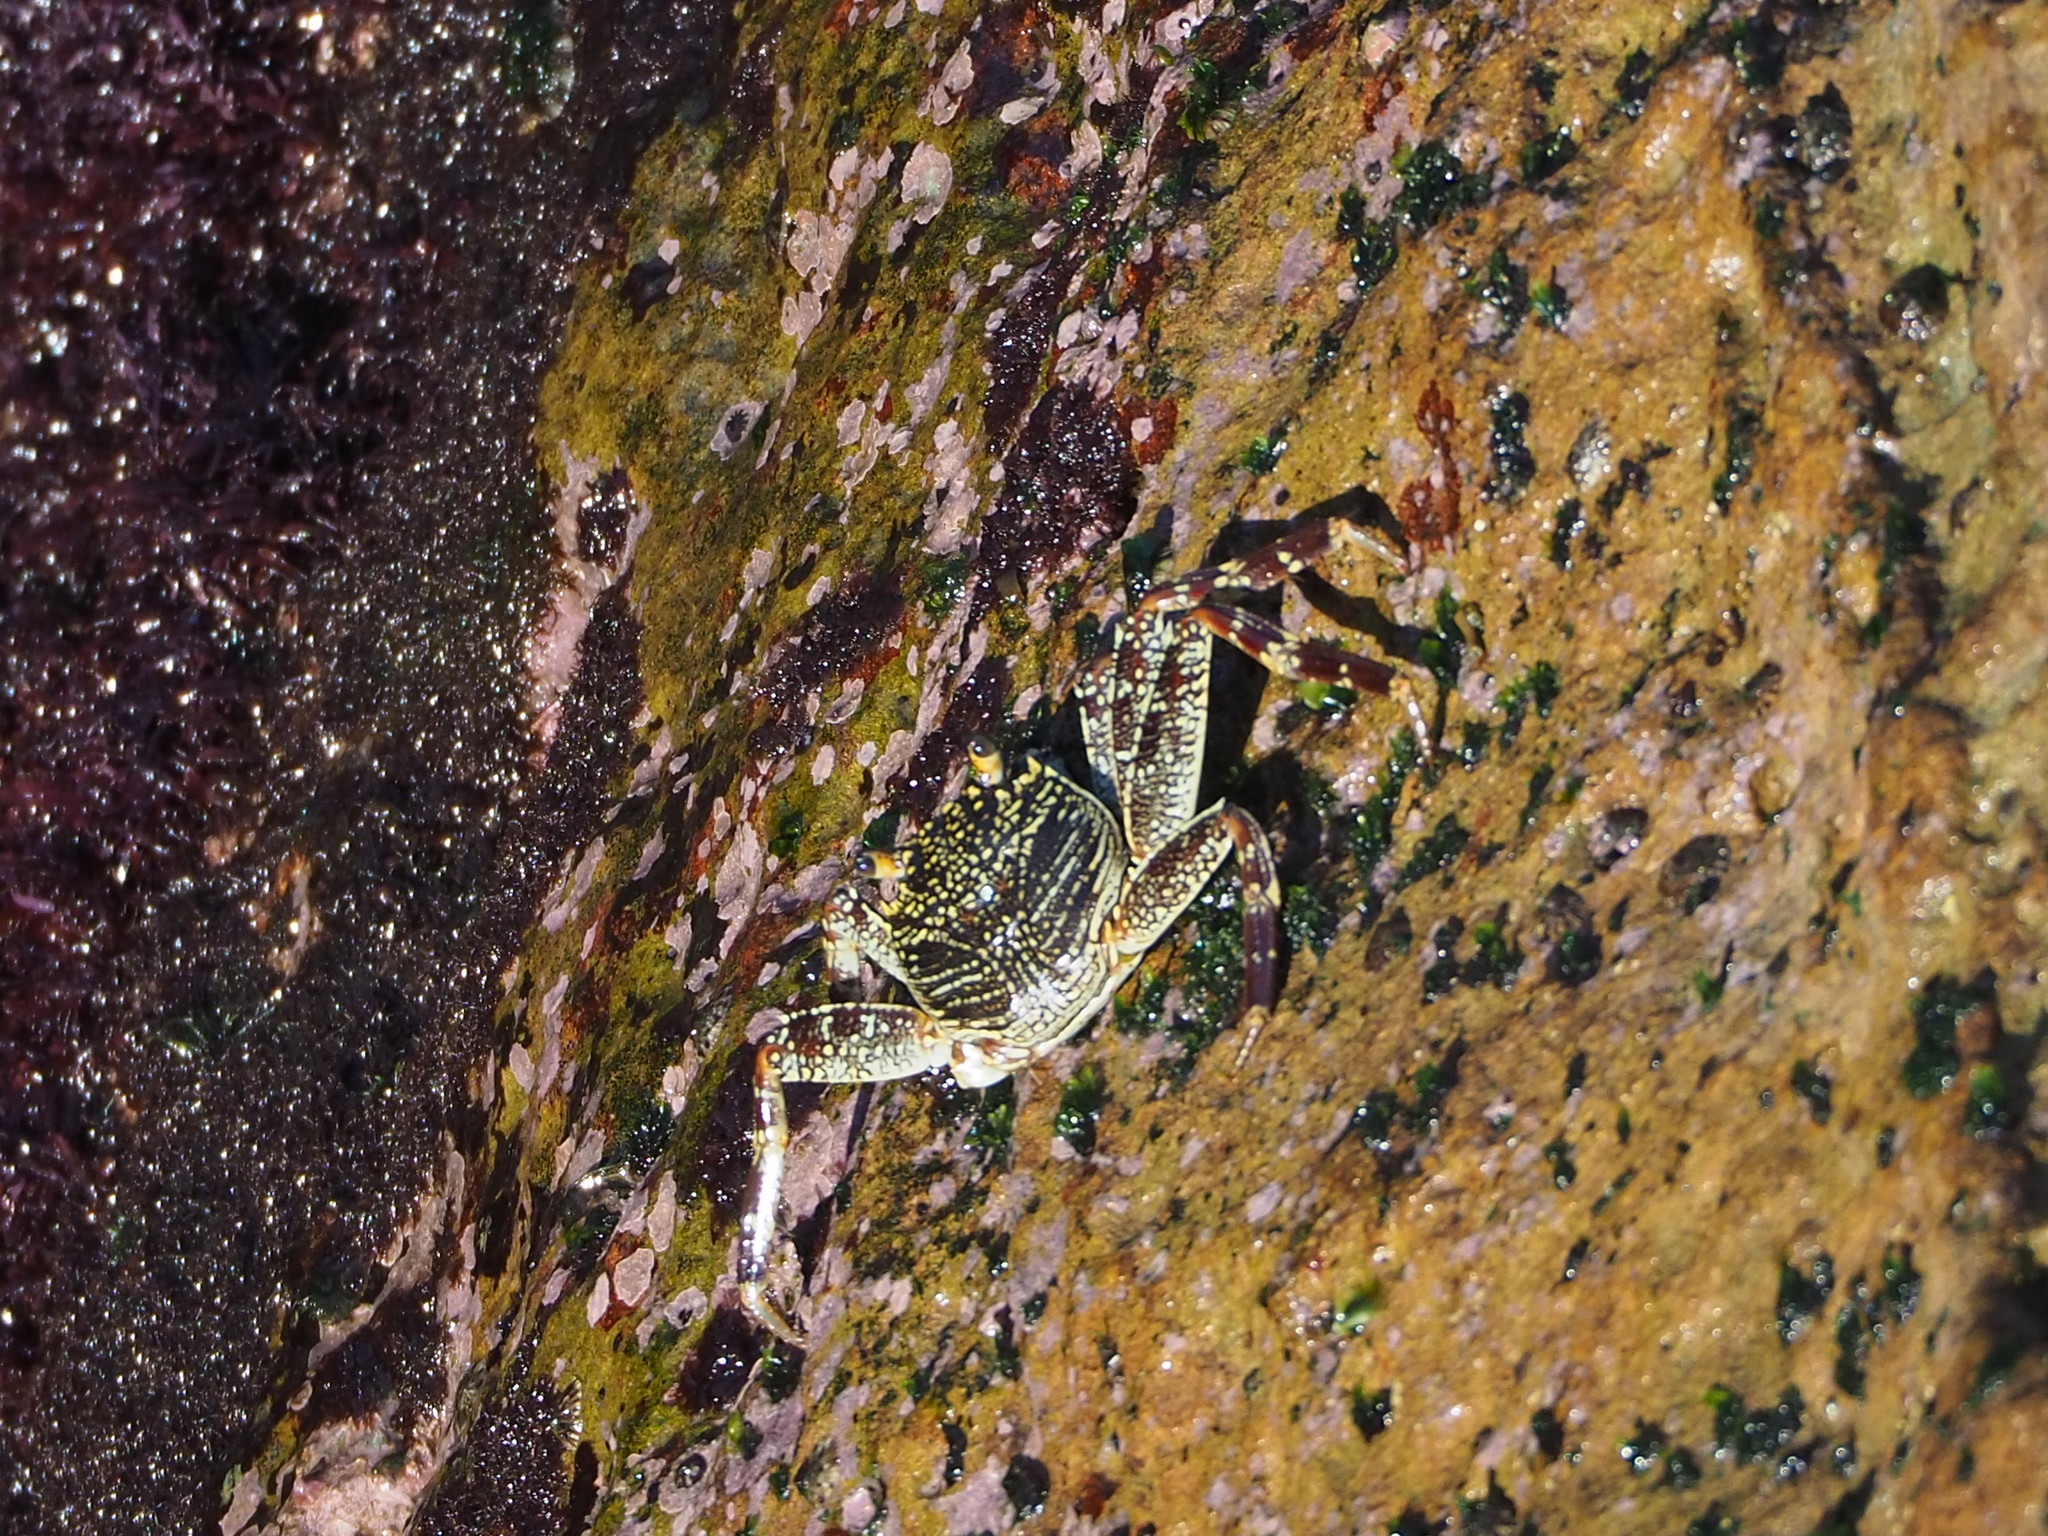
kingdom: Animalia
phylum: Arthropoda
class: Malacostraca
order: Decapoda
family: Grapsidae
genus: Grapsus
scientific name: Grapsus tenuicrustatus
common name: Natal lightfoot crab
